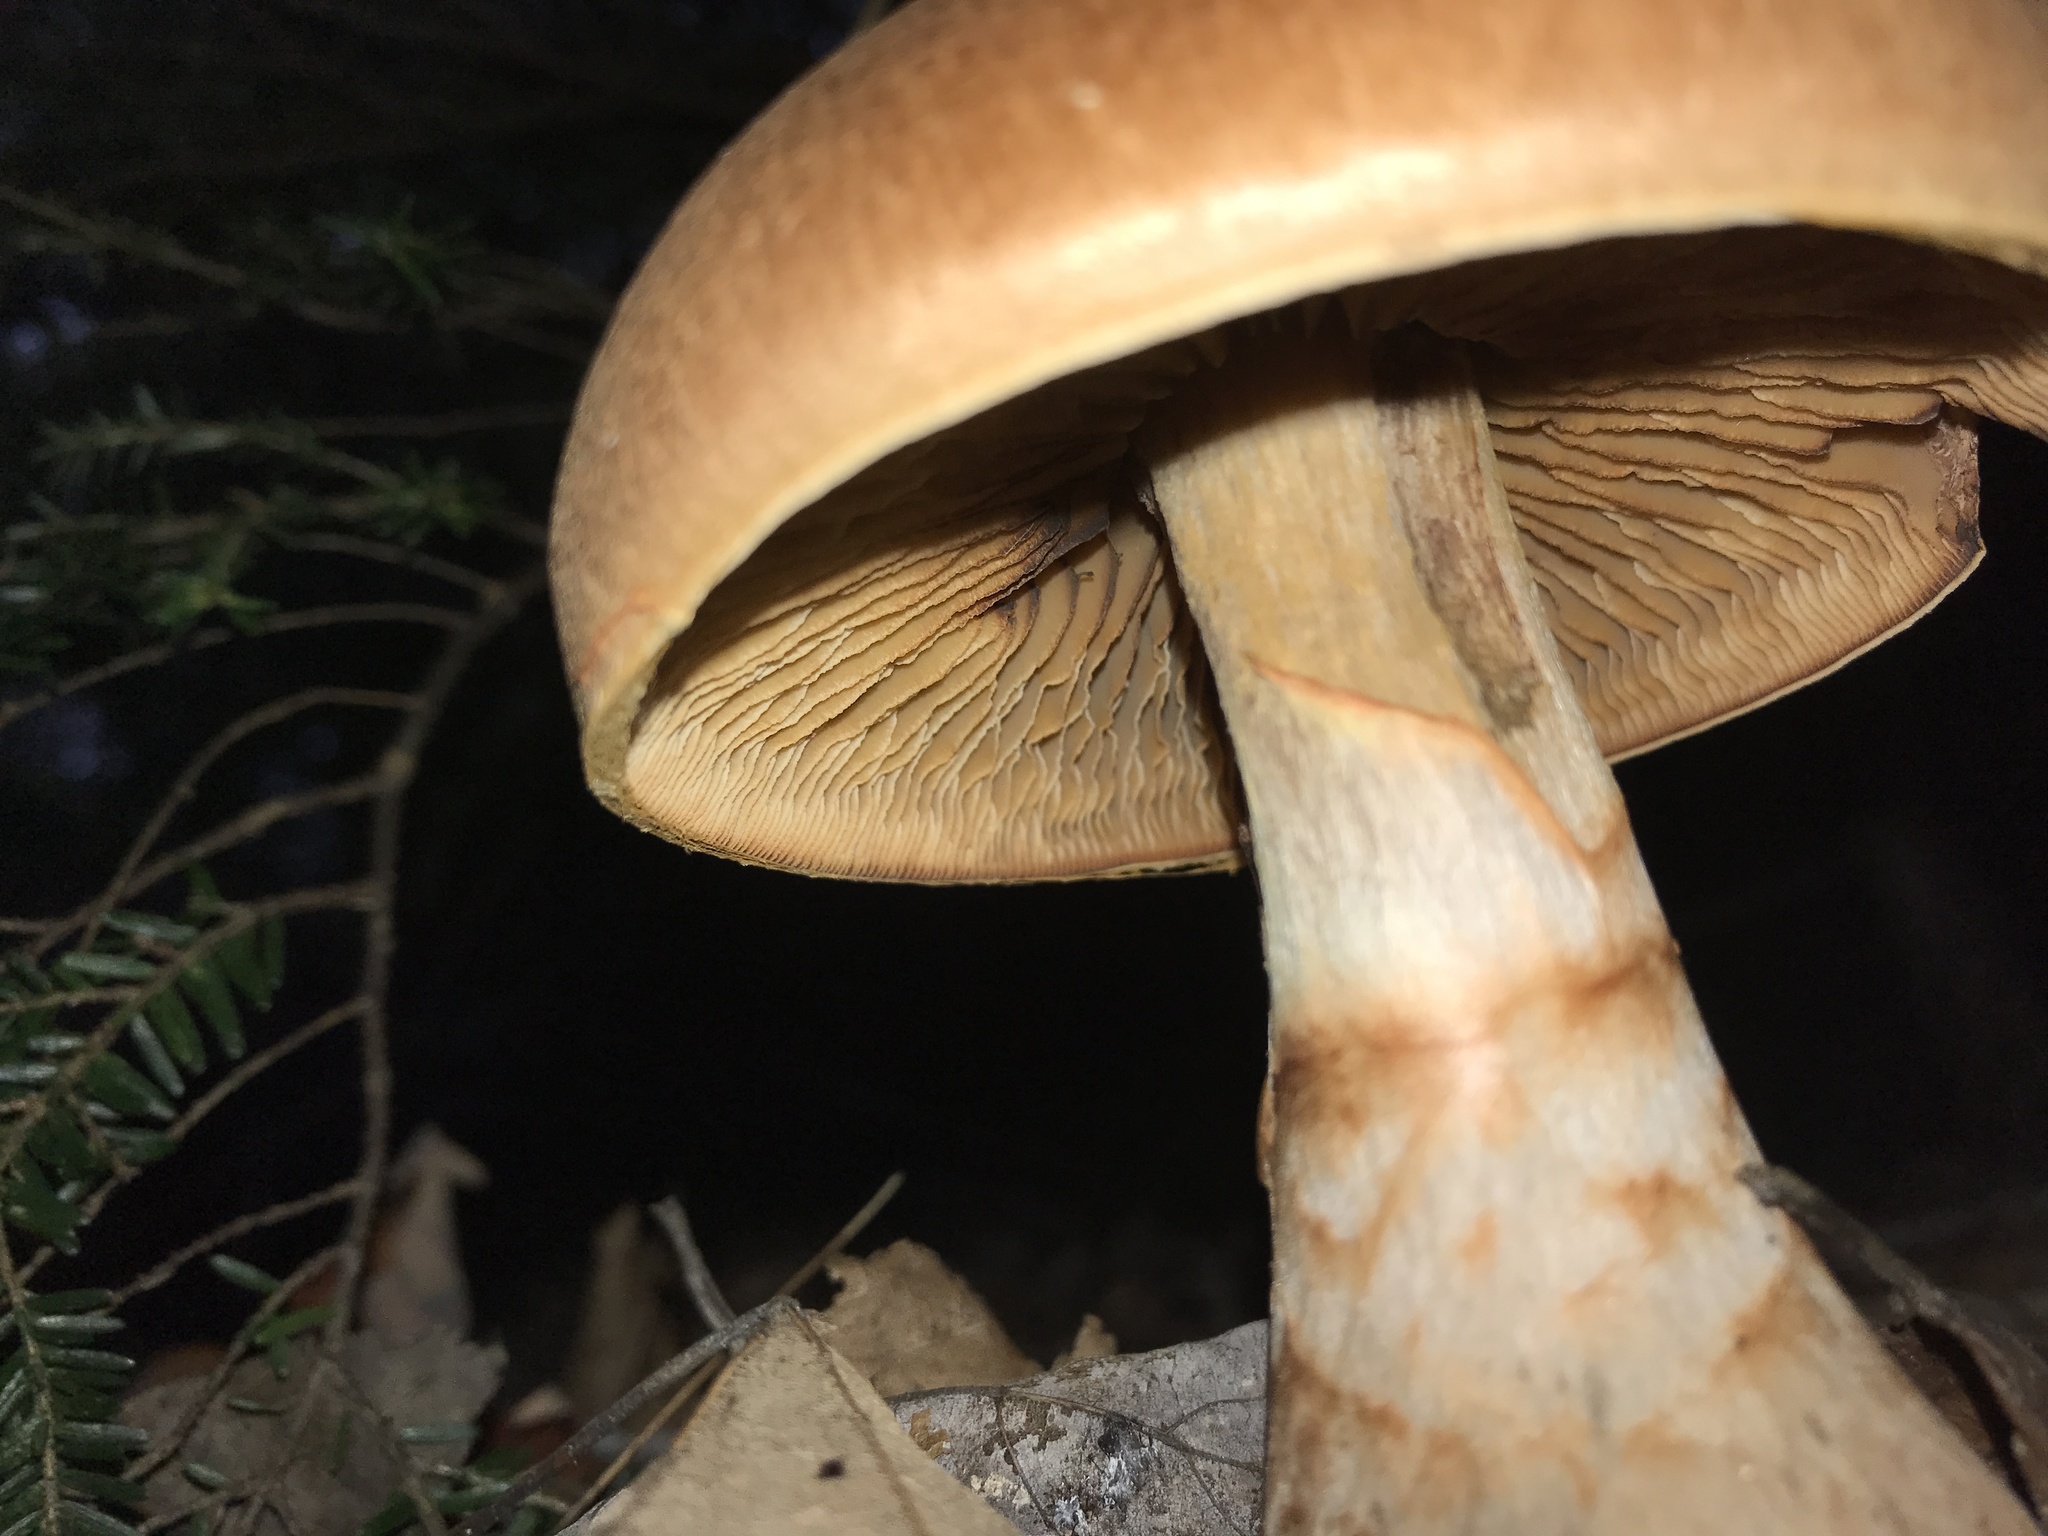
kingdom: Fungi
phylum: Basidiomycota
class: Agaricomycetes
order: Agaricales
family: Cortinariaceae
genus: Cortinarius
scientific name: Cortinarius armillatus
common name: Red banded webcap
